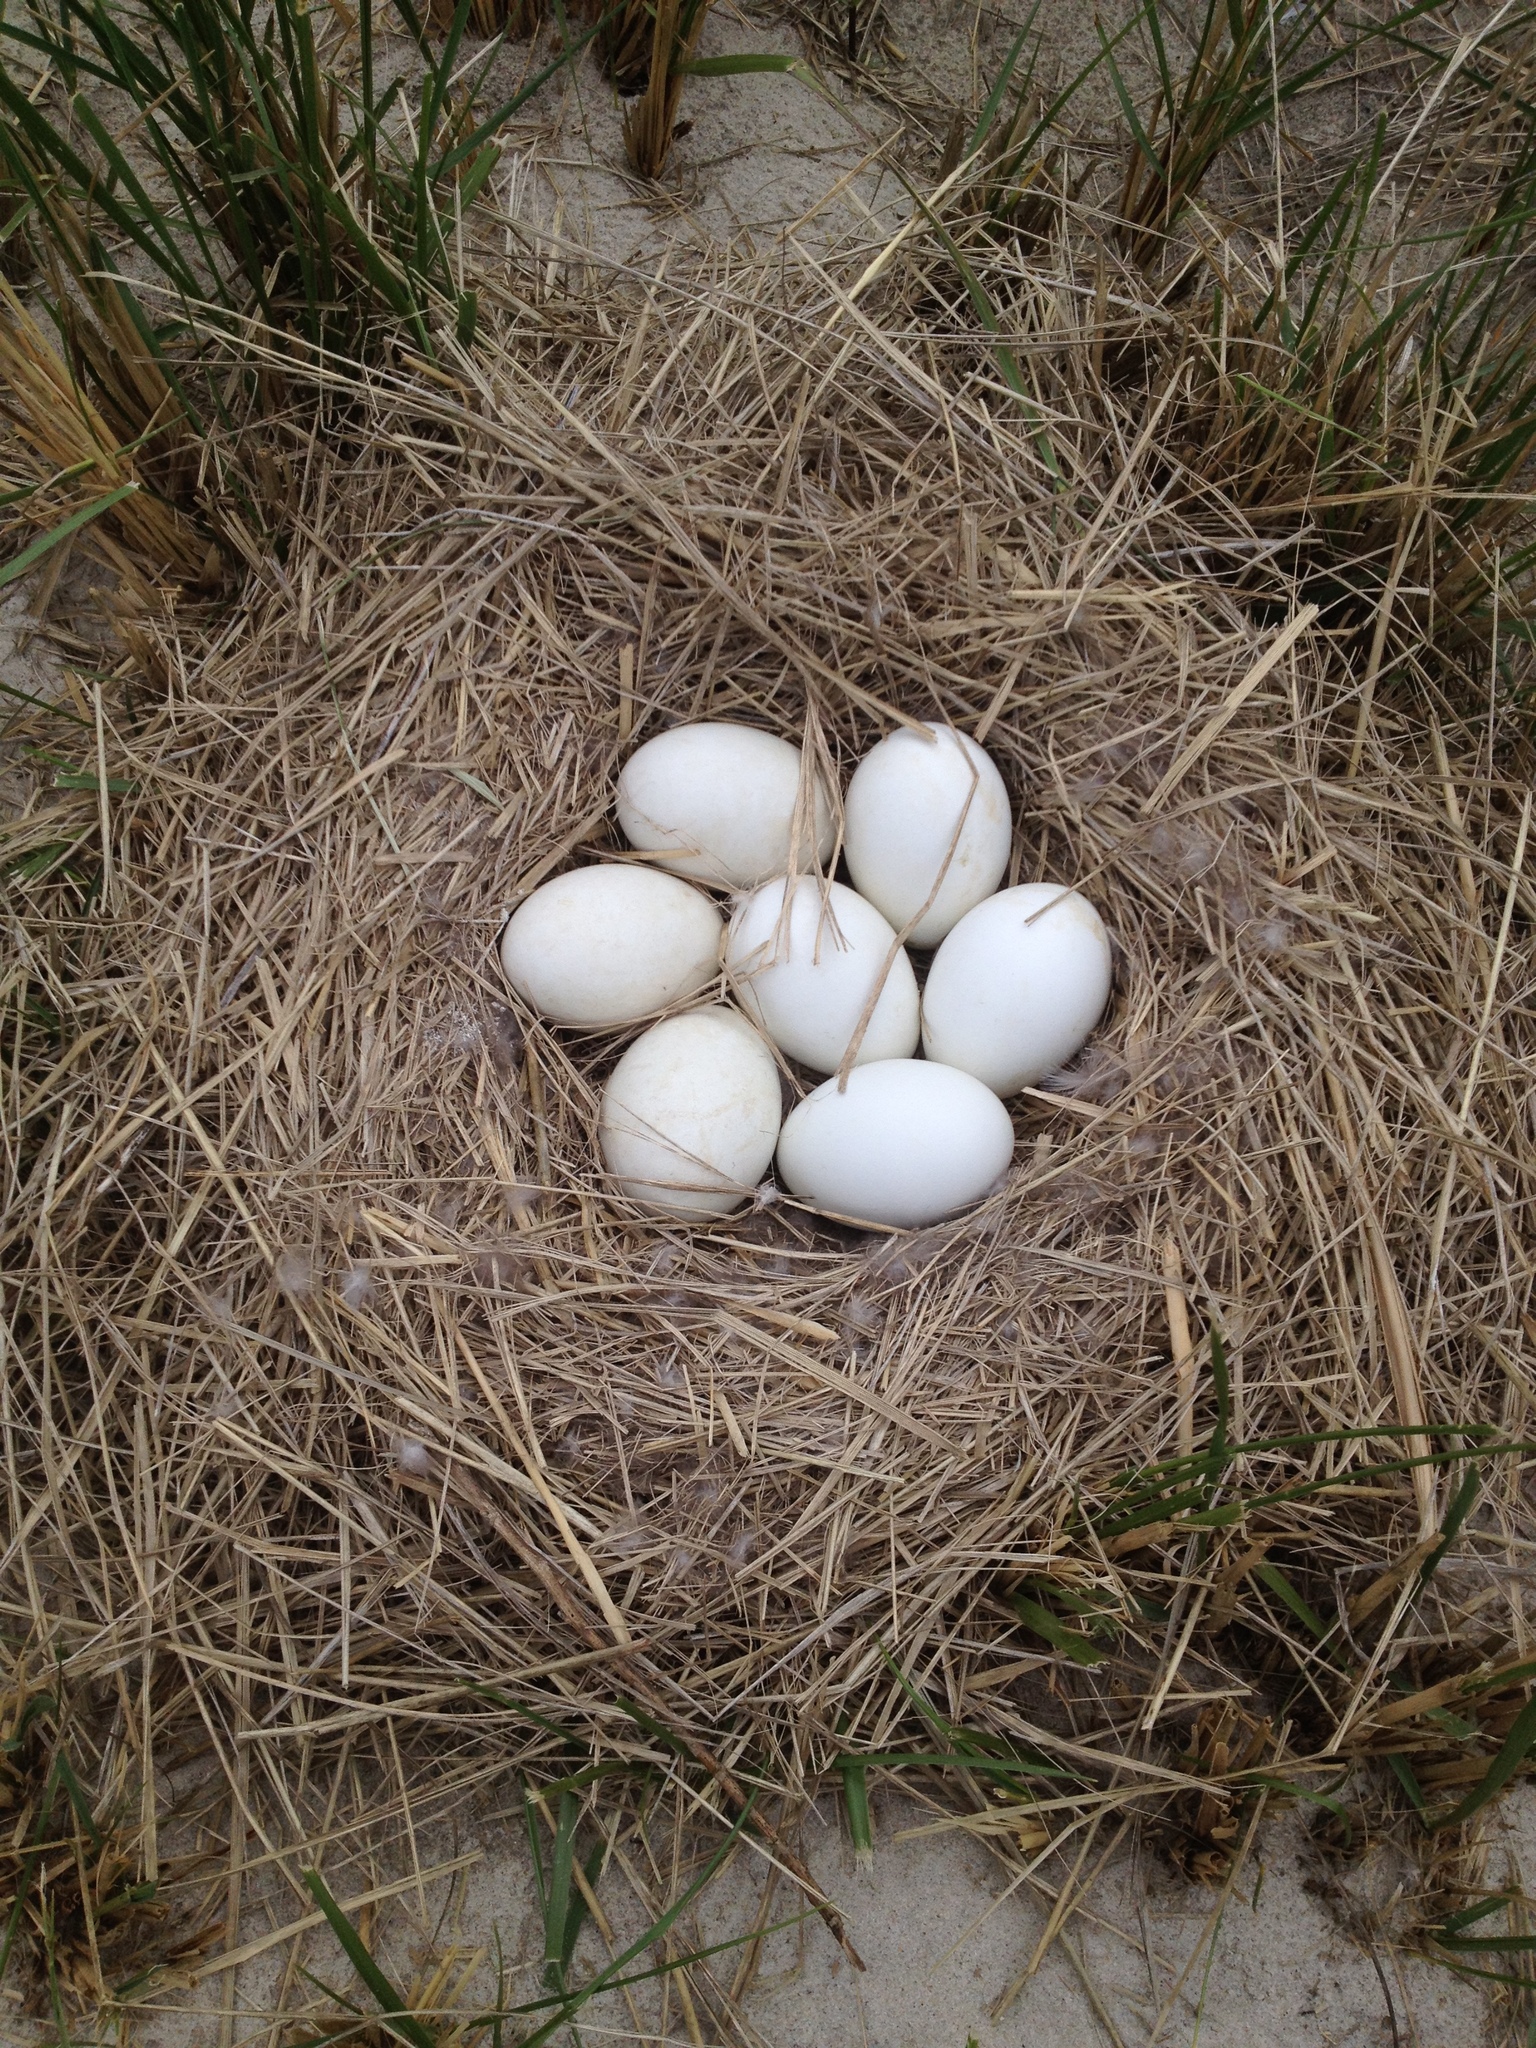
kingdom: Animalia
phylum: Chordata
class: Aves
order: Anseriformes
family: Anatidae
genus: Branta
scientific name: Branta canadensis
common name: Canada goose
